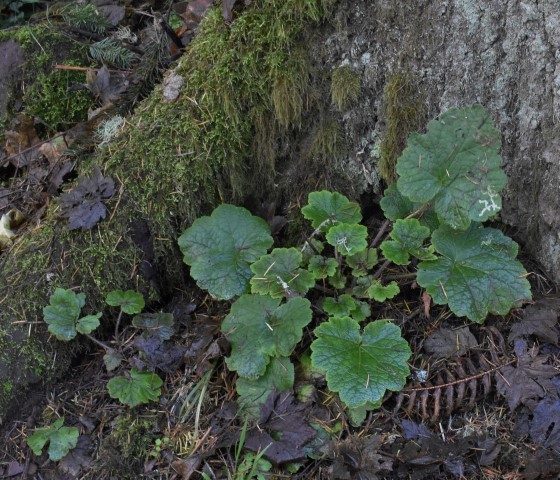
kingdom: Plantae
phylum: Tracheophyta
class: Magnoliopsida
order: Saxifragales
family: Saxifragaceae
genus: Tellima
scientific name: Tellima grandiflora
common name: Fringecups
